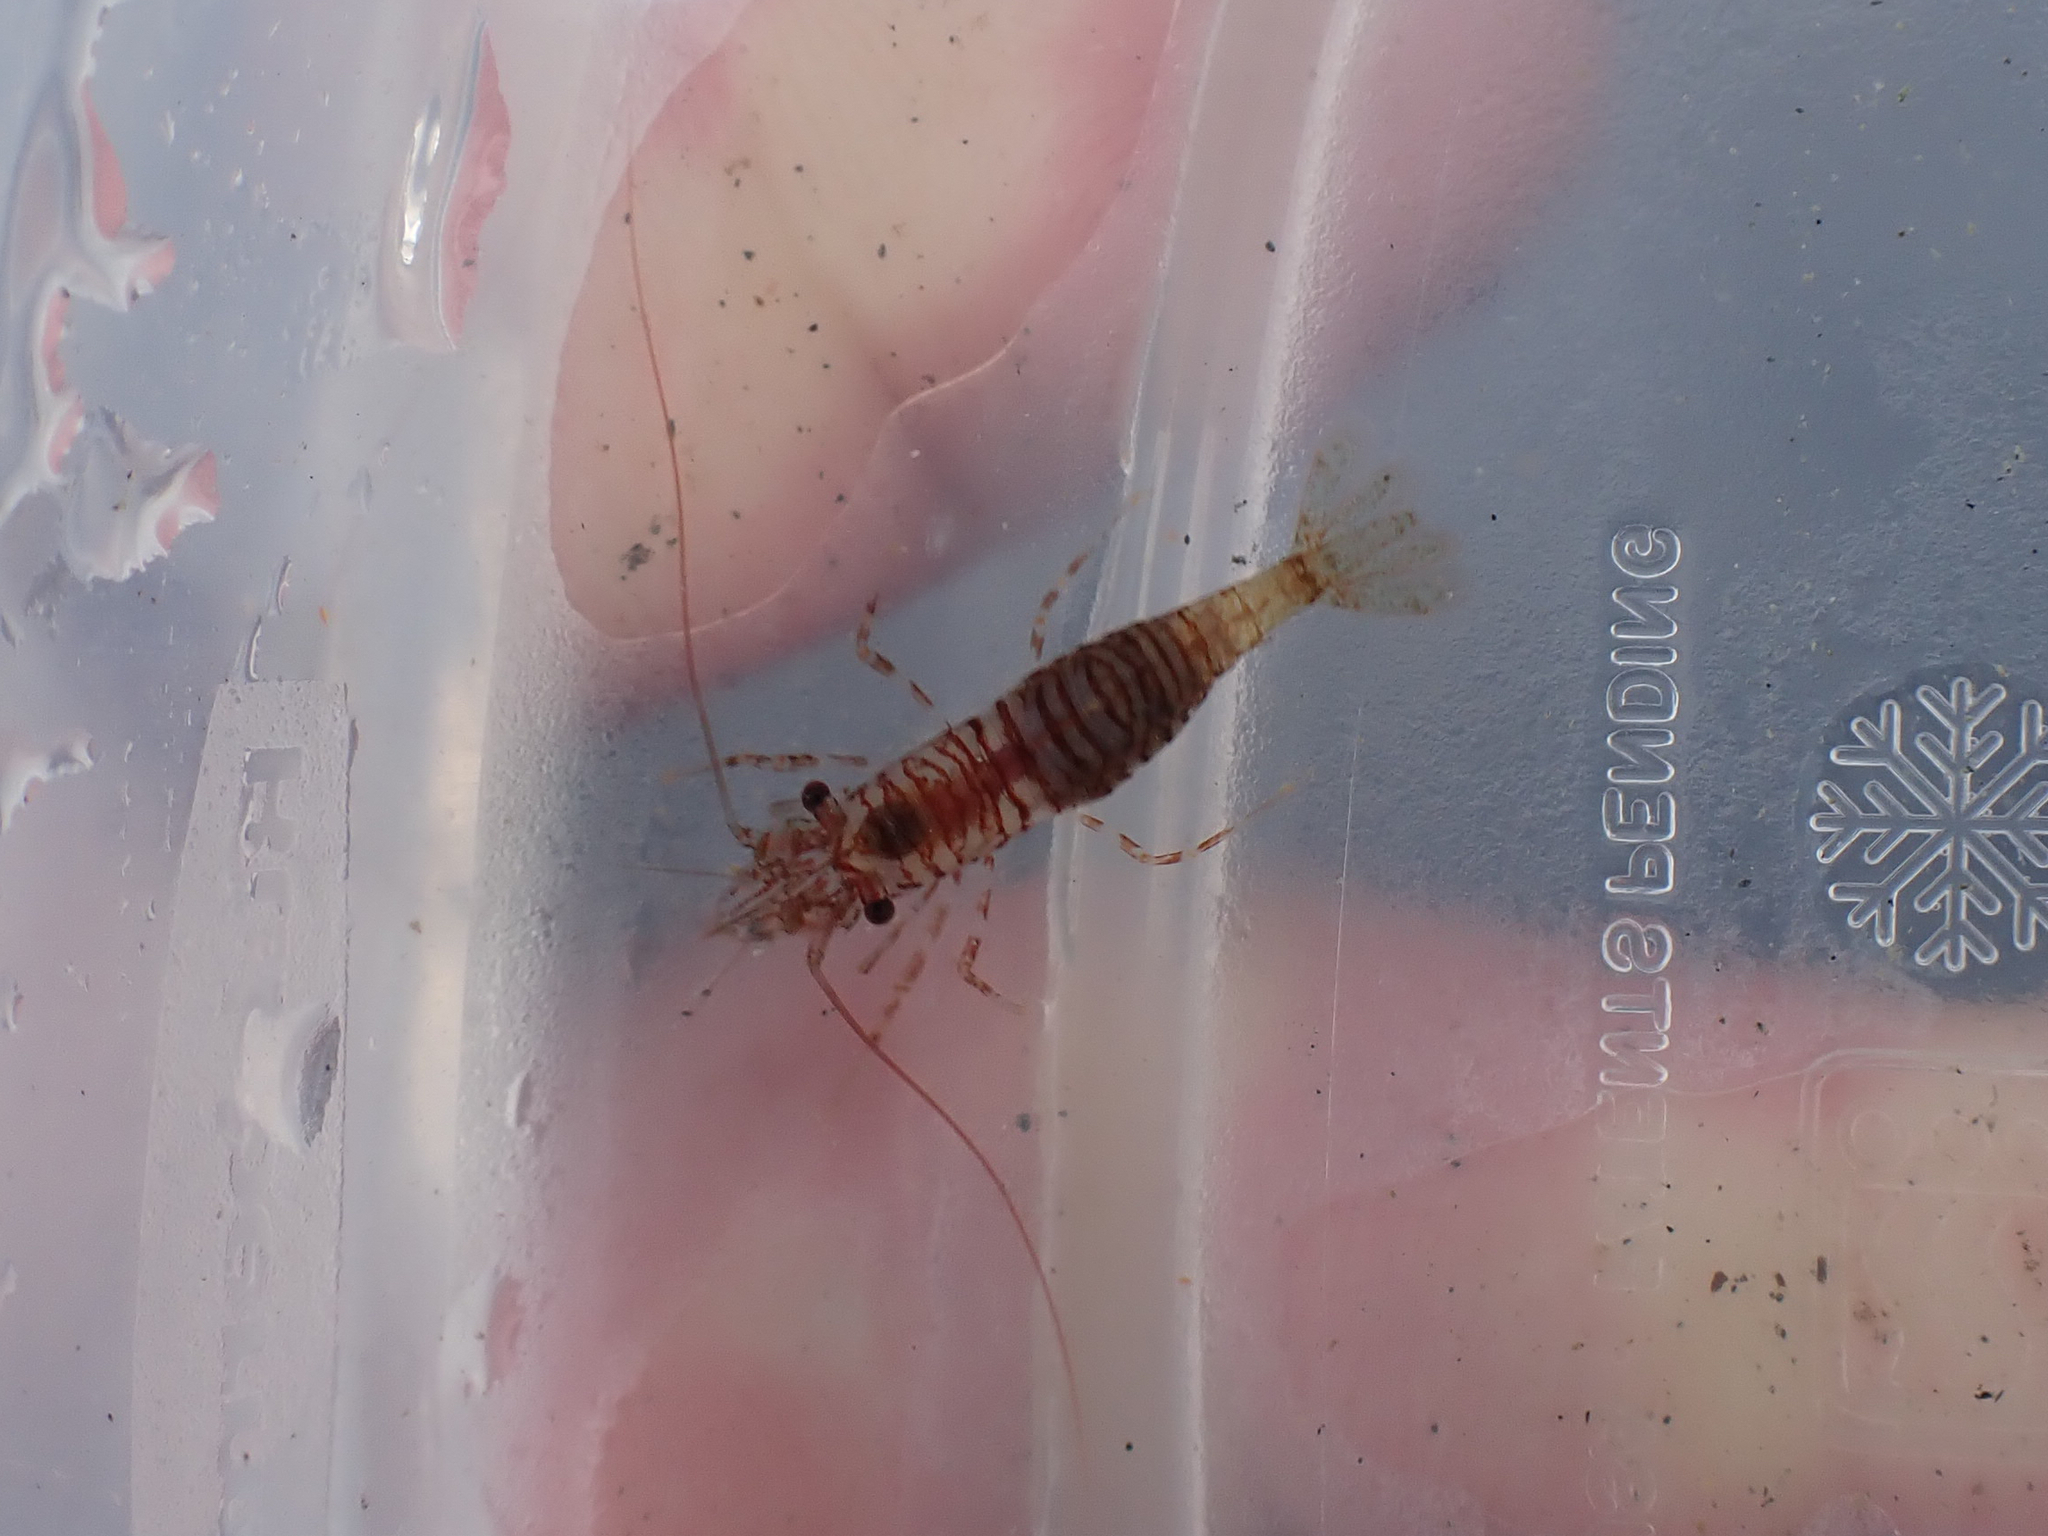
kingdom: Animalia
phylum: Arthropoda
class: Malacostraca
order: Decapoda
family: Thoridae
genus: Heptacarpus
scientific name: Heptacarpus pugettensis
